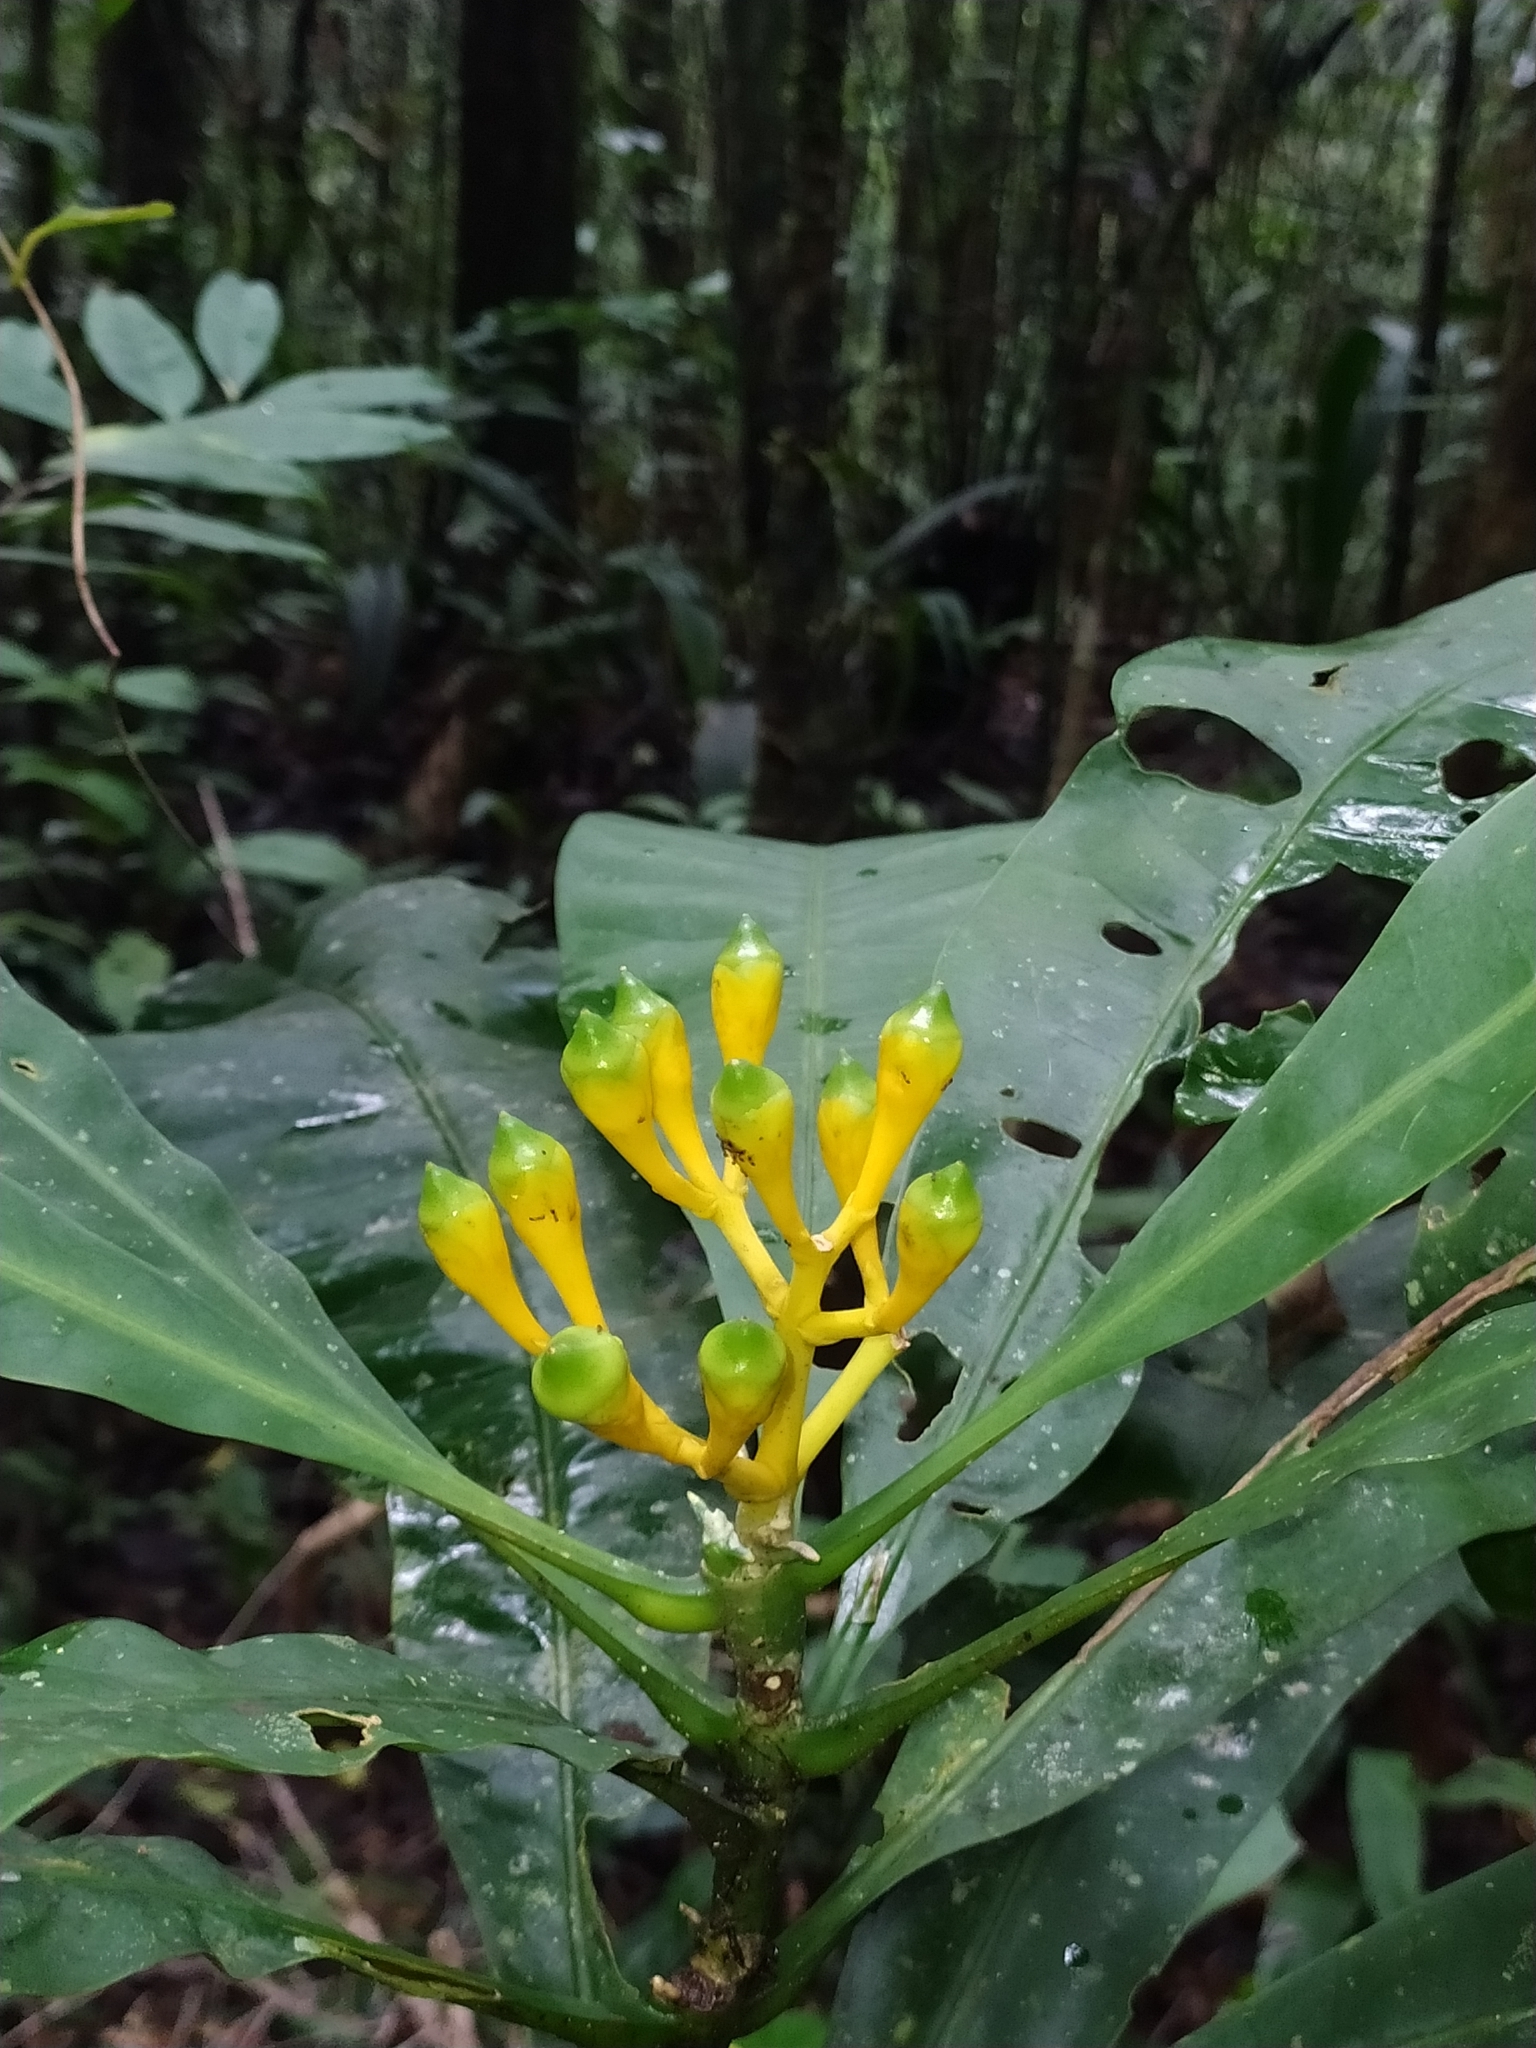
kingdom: Plantae
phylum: Tracheophyta
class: Magnoliopsida
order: Gentianales
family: Gentianaceae
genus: Potalia
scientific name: Potalia amara
